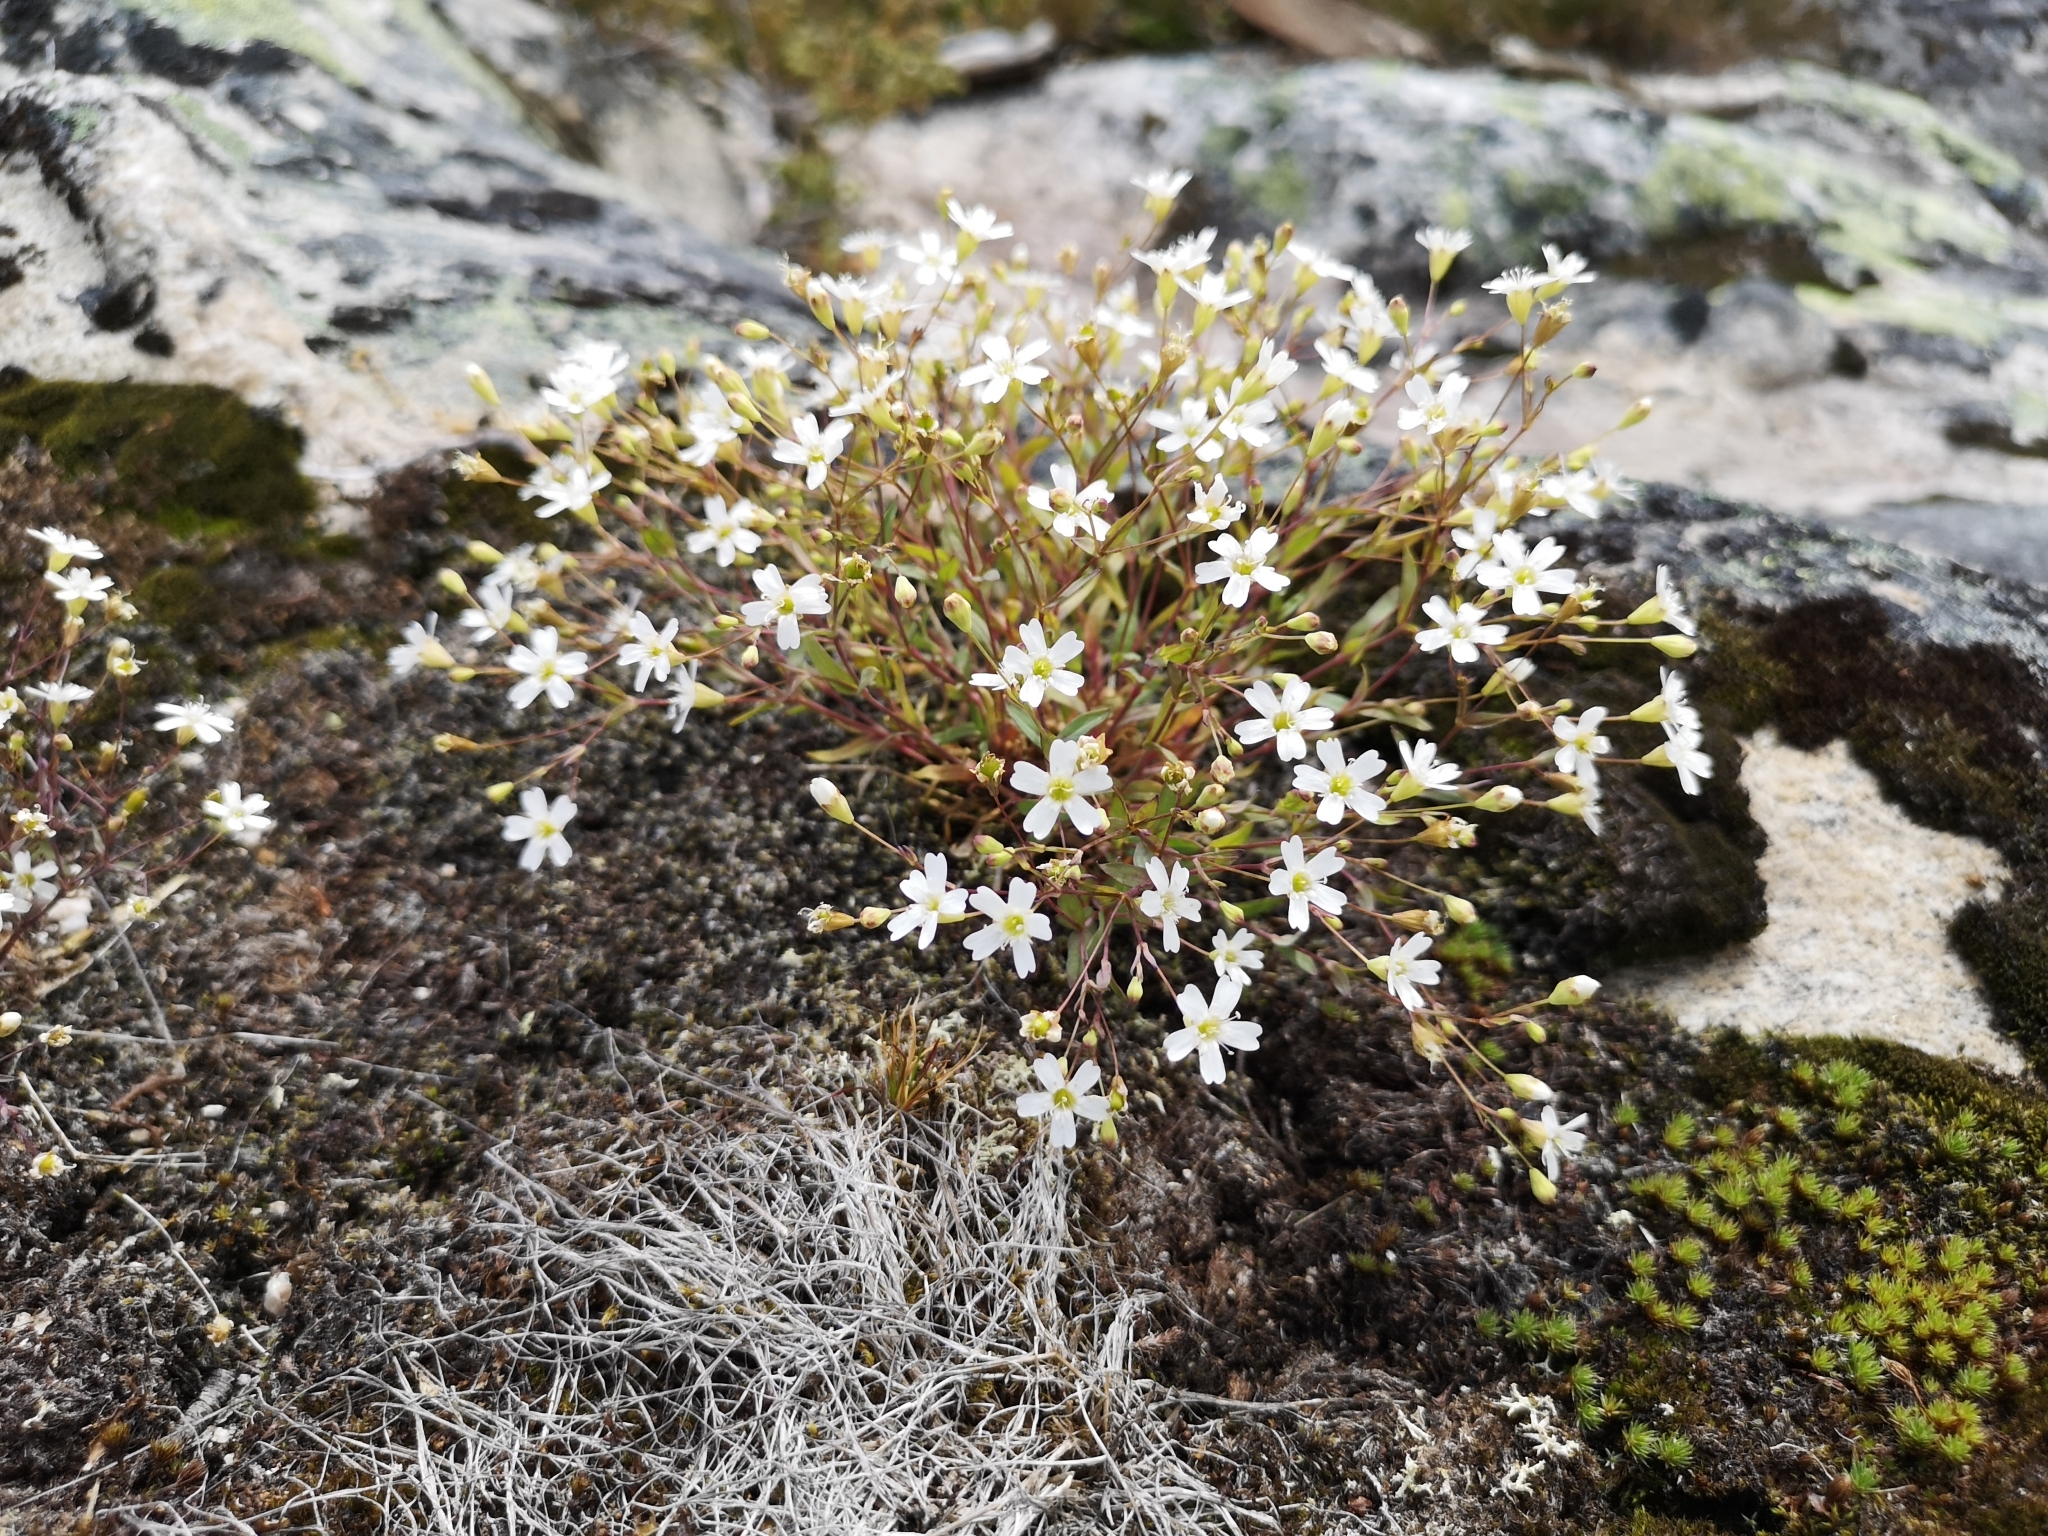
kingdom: Plantae
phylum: Tracheophyta
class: Magnoliopsida
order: Caryophyllales
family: Caryophyllaceae
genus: Atocion
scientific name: Atocion rupestre
